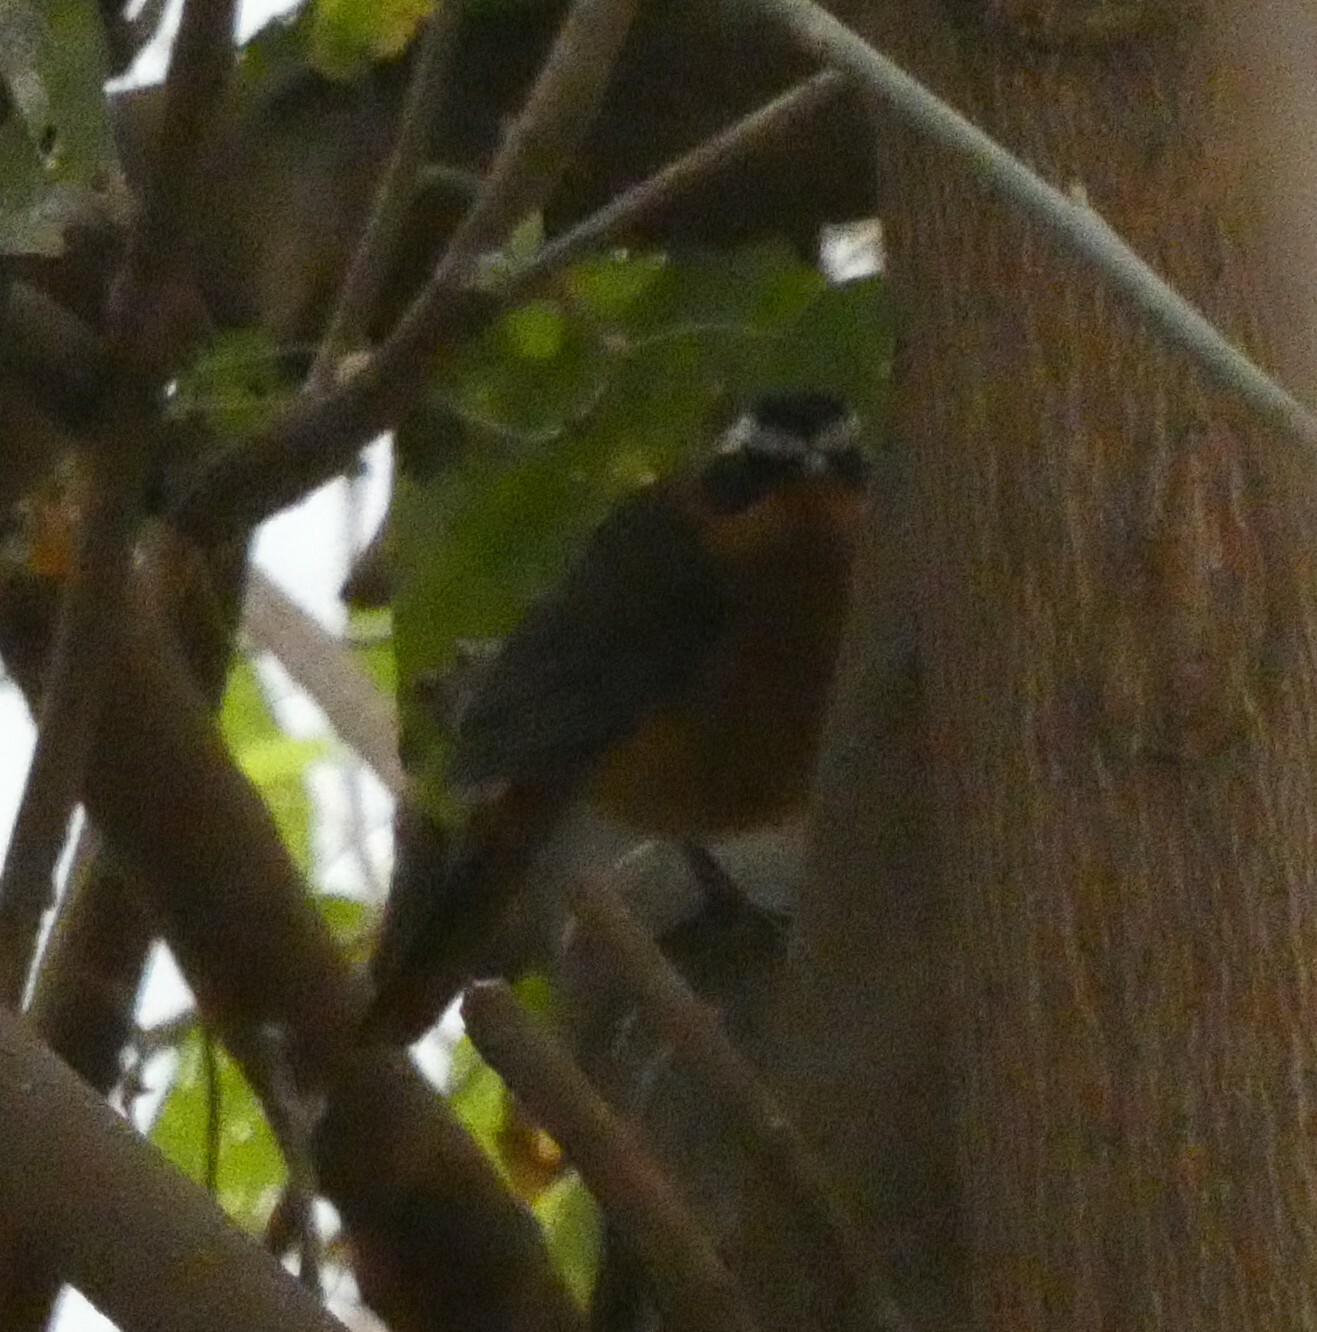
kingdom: Animalia
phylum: Chordata
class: Aves
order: Passeriformes
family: Muscicapidae
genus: Cossypha
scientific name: Cossypha heuglini
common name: White-browed robin-chat
